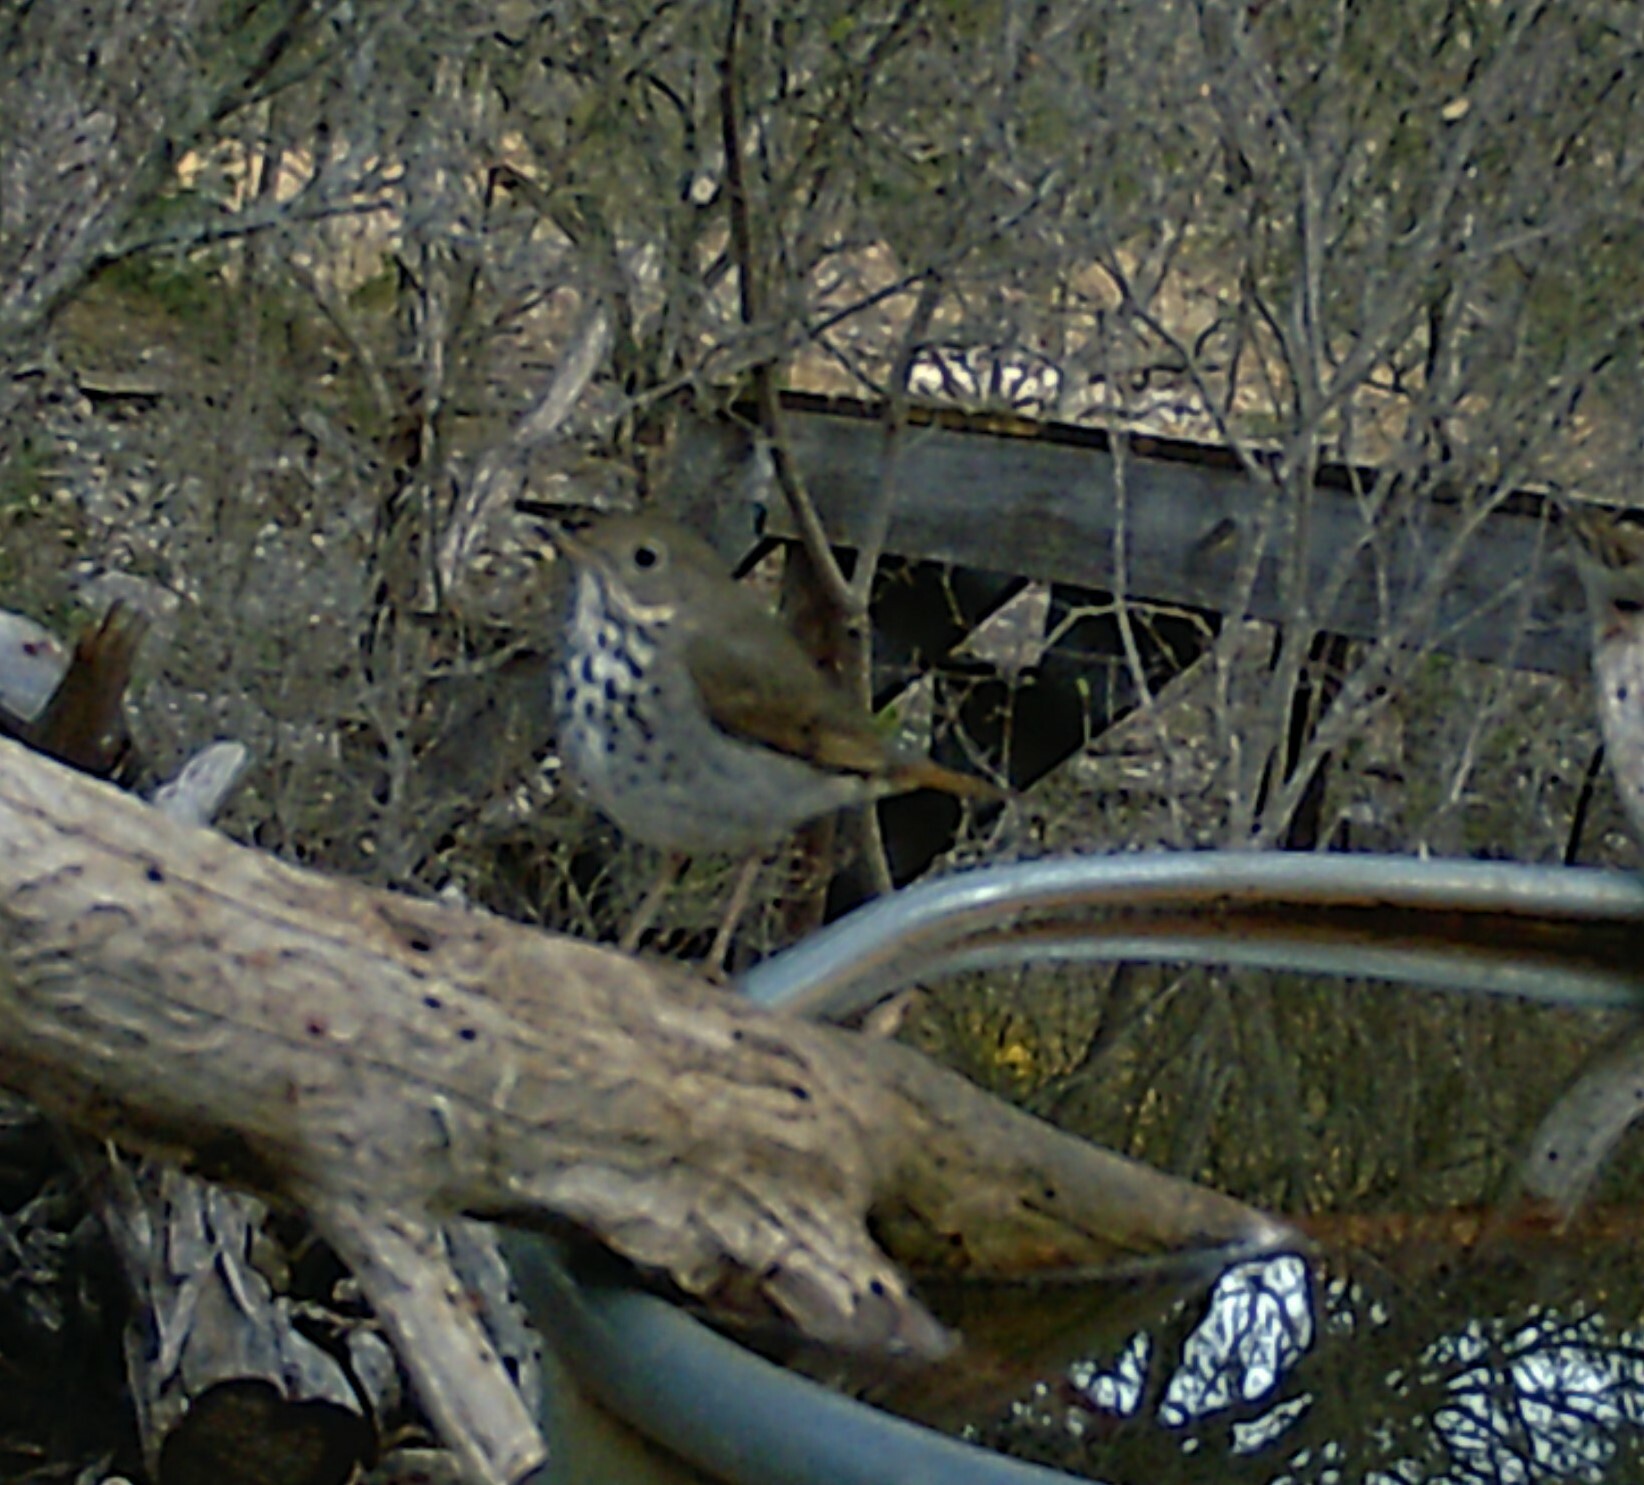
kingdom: Animalia
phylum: Chordata
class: Aves
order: Passeriformes
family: Turdidae
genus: Catharus
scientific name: Catharus guttatus
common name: Hermit thrush
